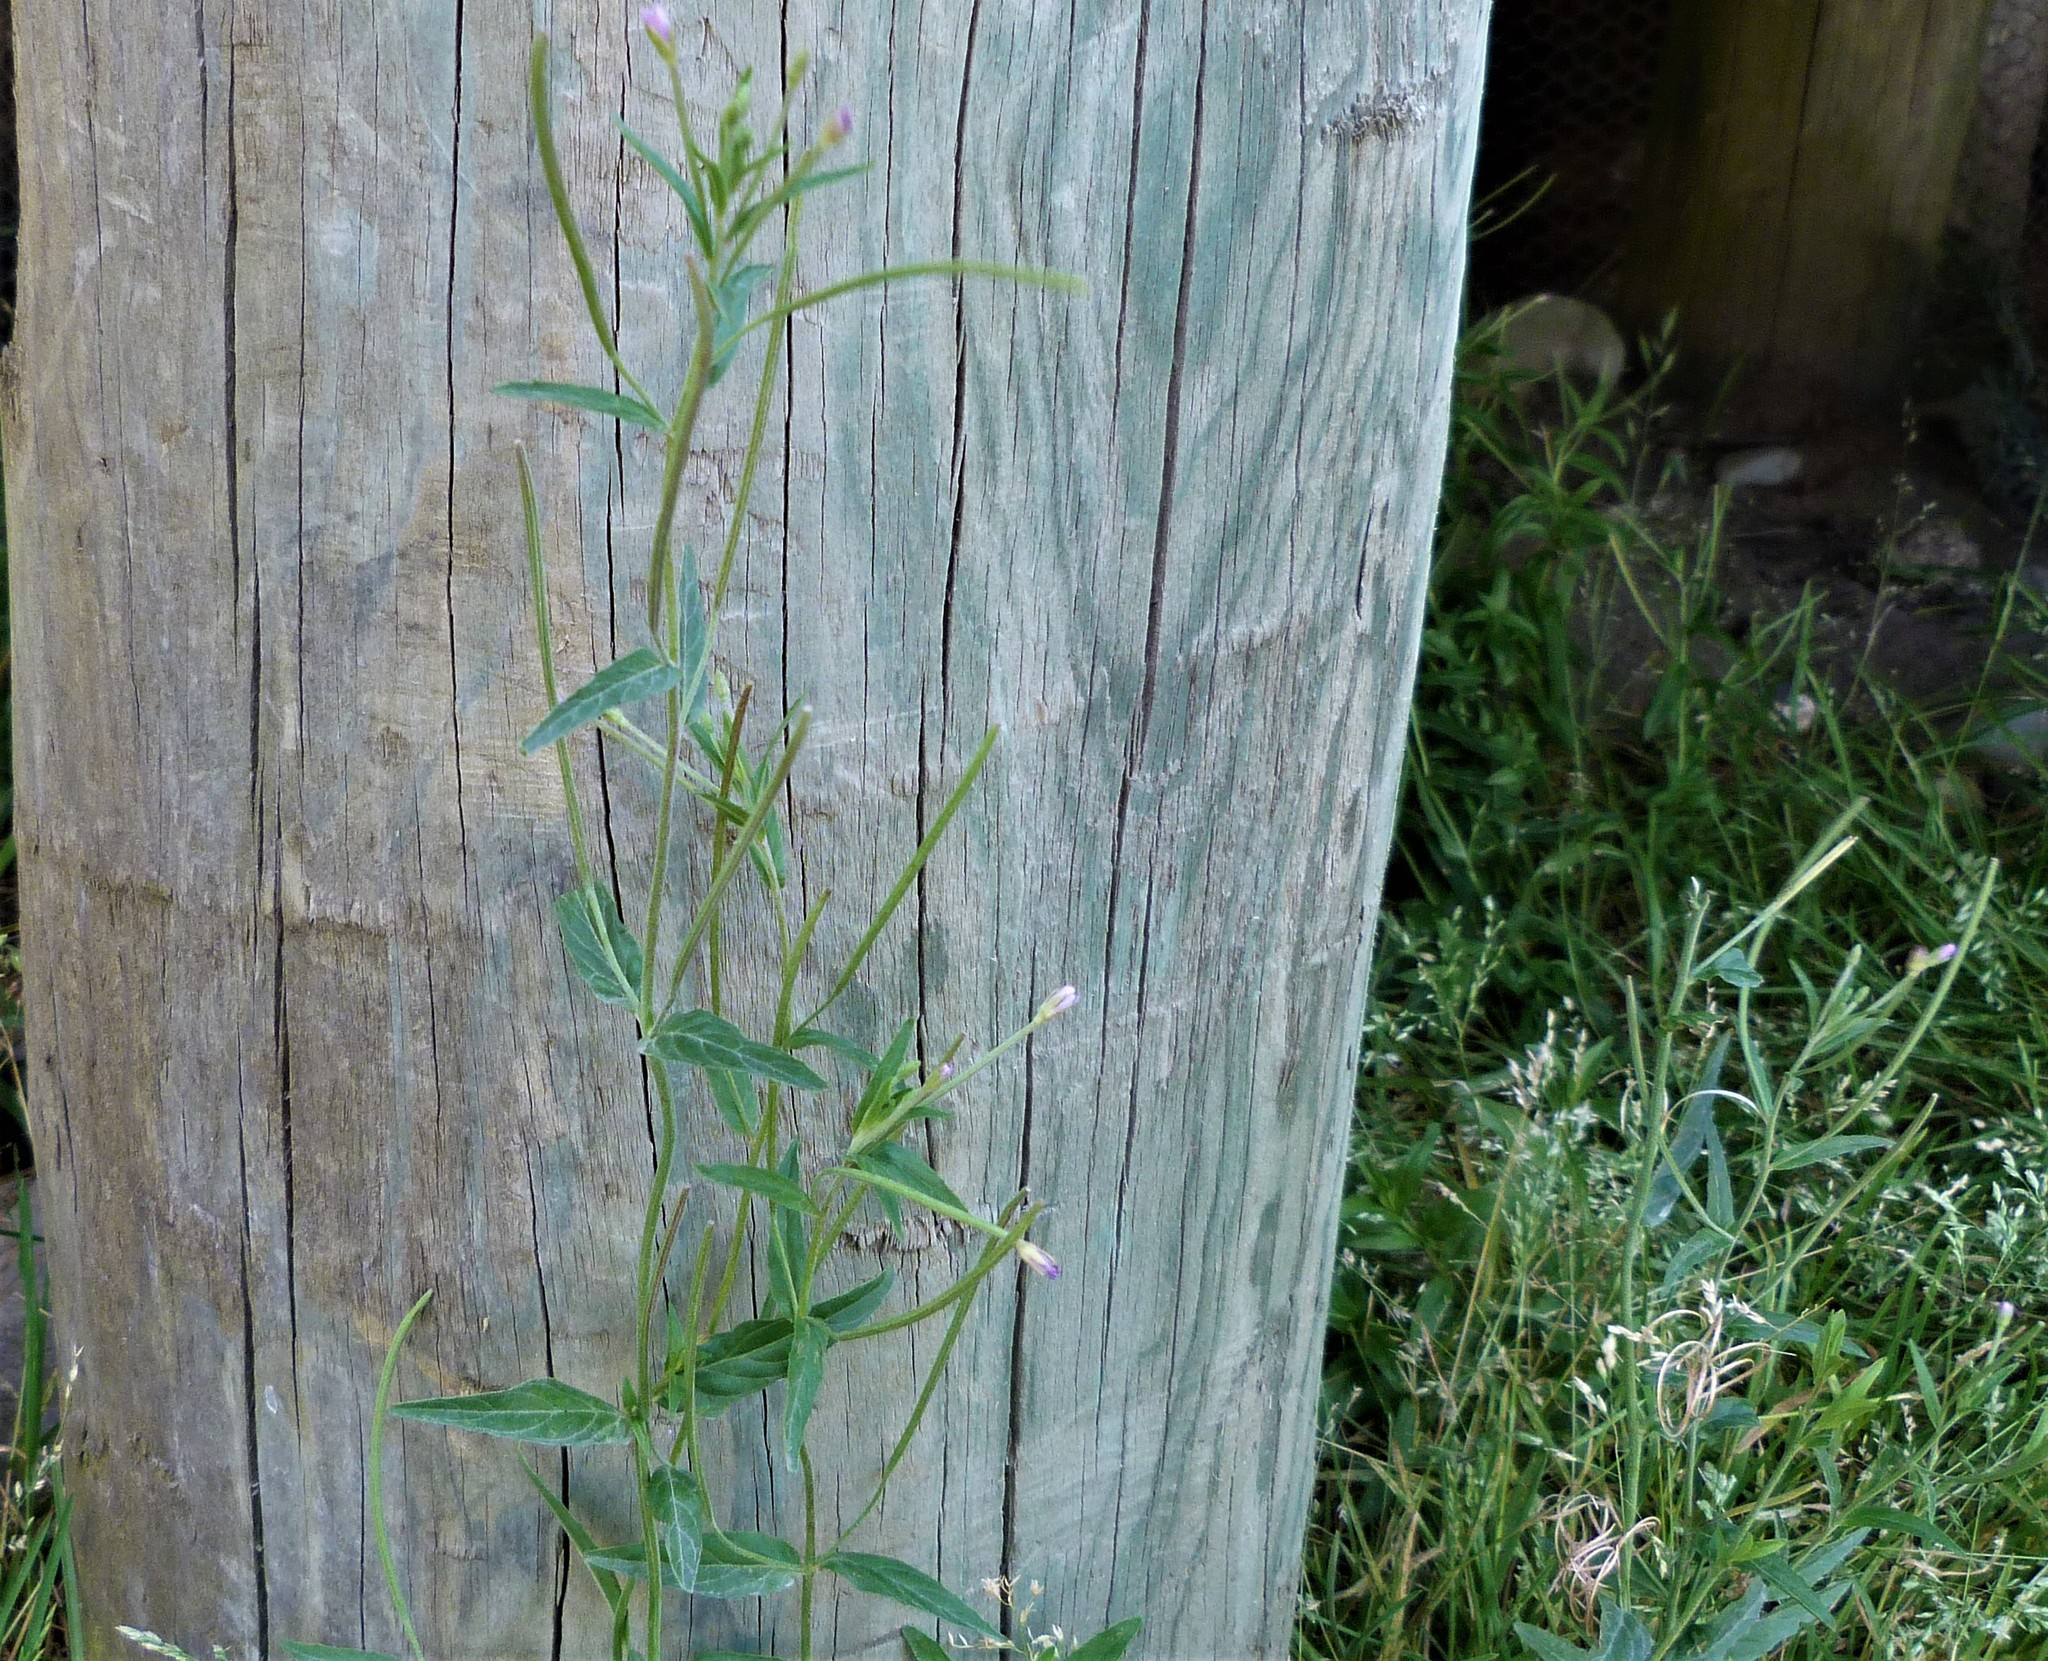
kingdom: Plantae
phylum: Tracheophyta
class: Magnoliopsida
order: Myrtales
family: Onagraceae
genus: Epilobium
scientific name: Epilobium ciliatum
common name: American willowherb
